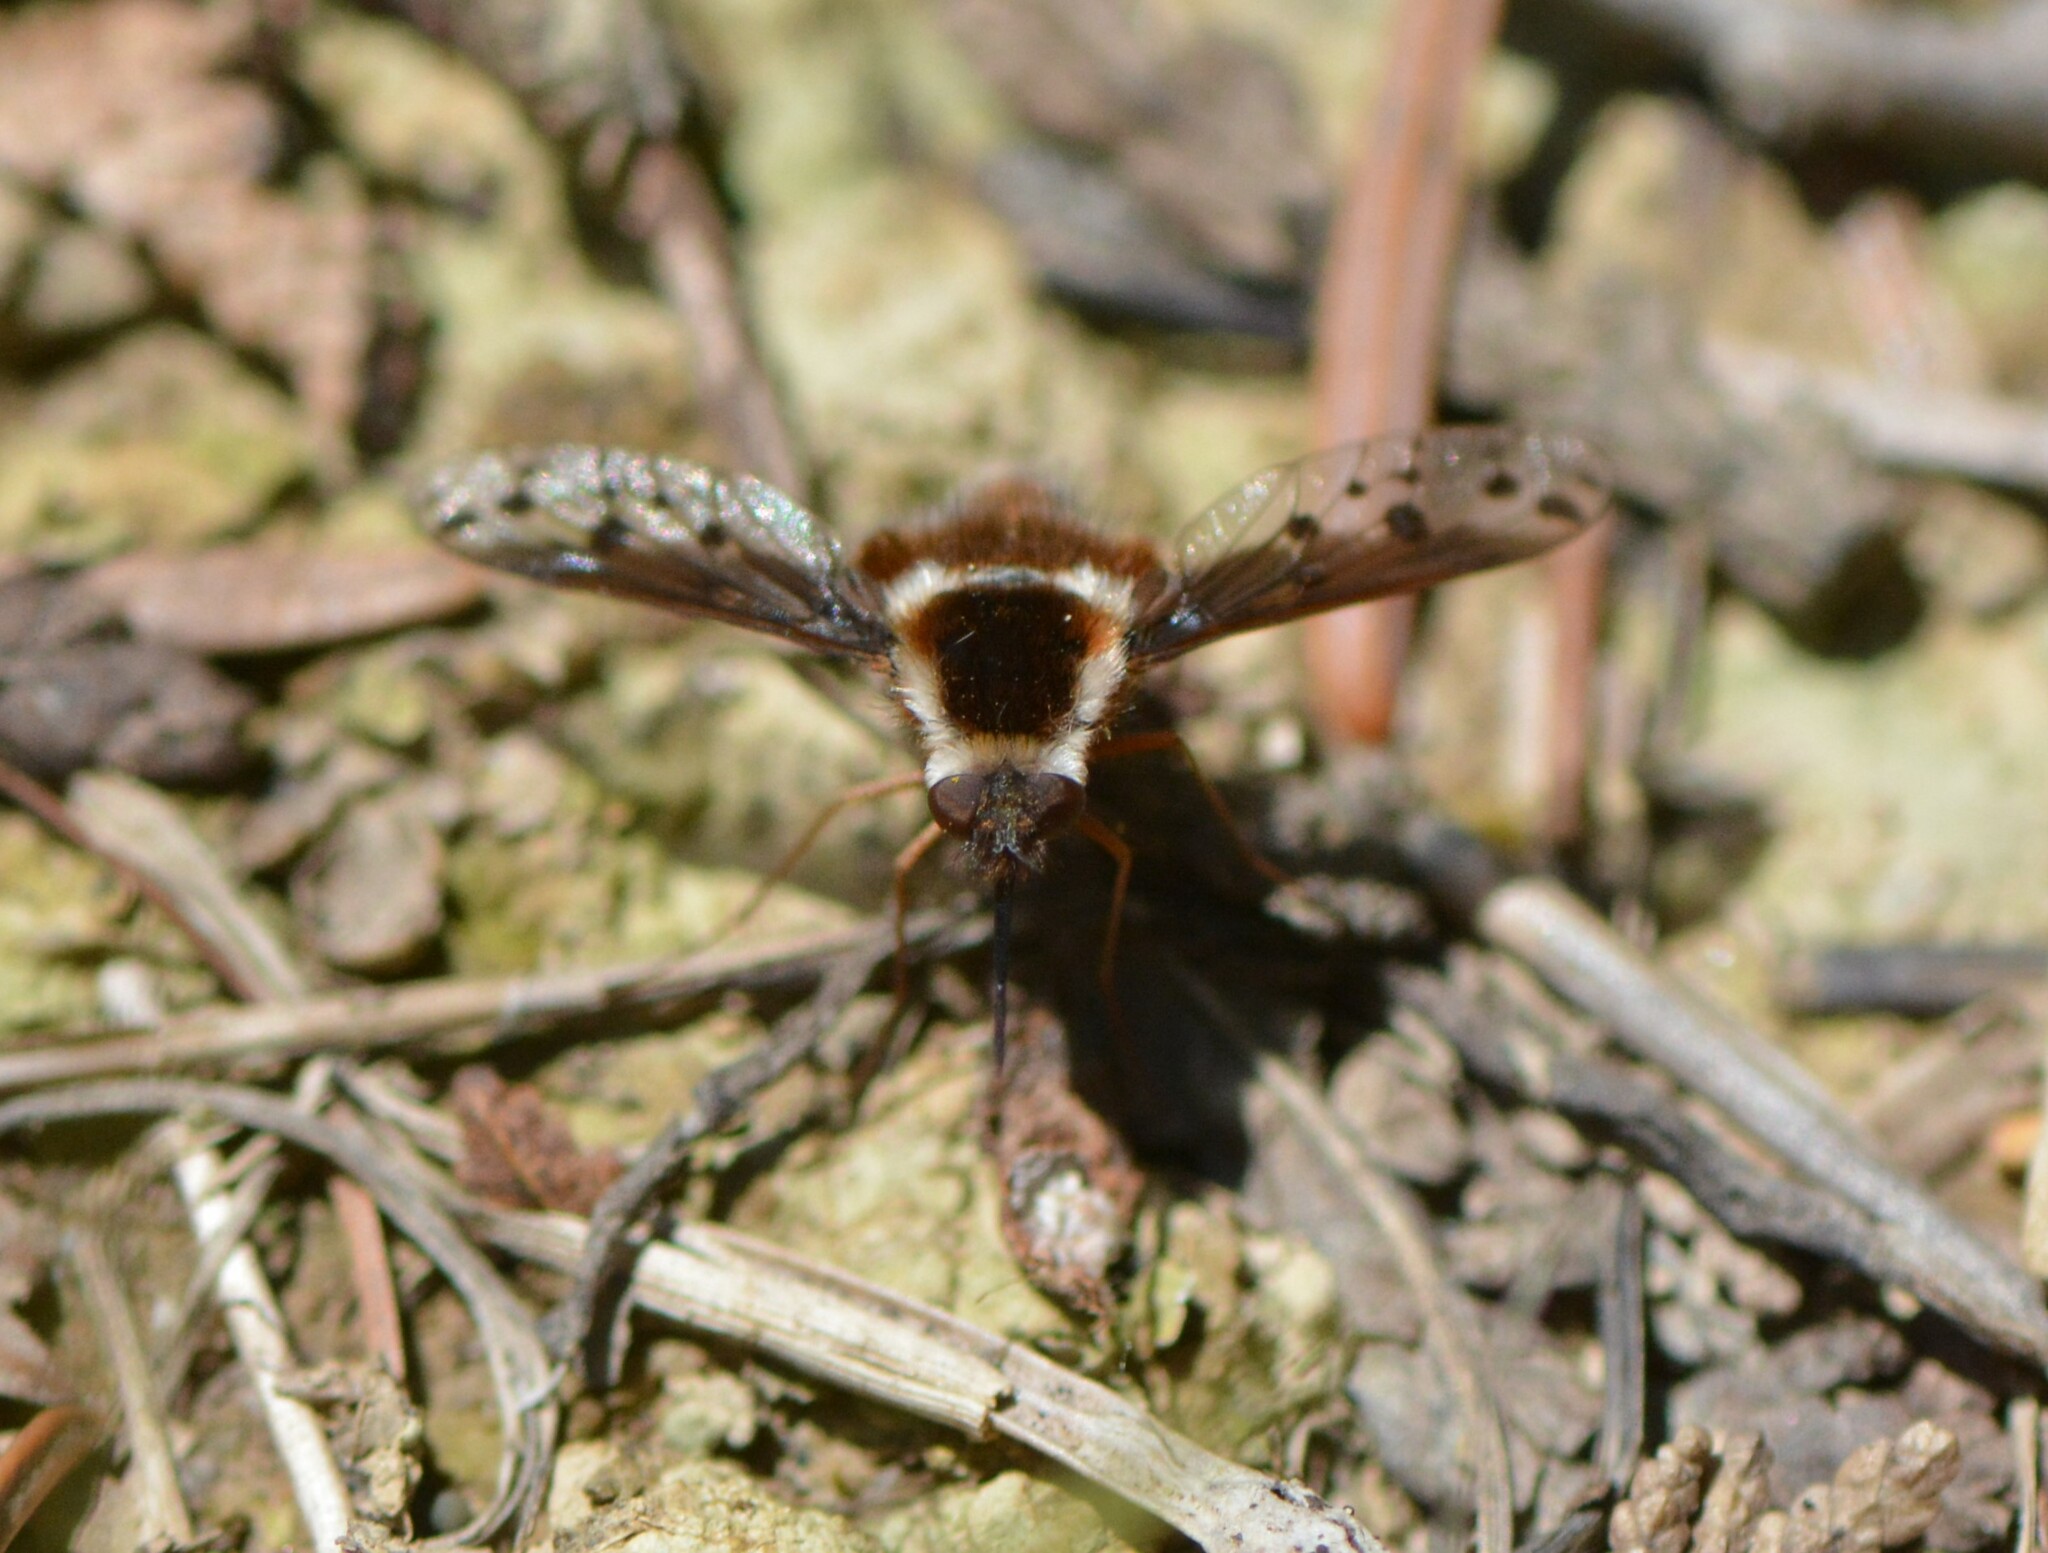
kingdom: Animalia
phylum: Arthropoda
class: Insecta
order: Diptera
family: Bombyliidae
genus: Bombylius
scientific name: Bombylius pygmaeus
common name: Pygmy bee fly
